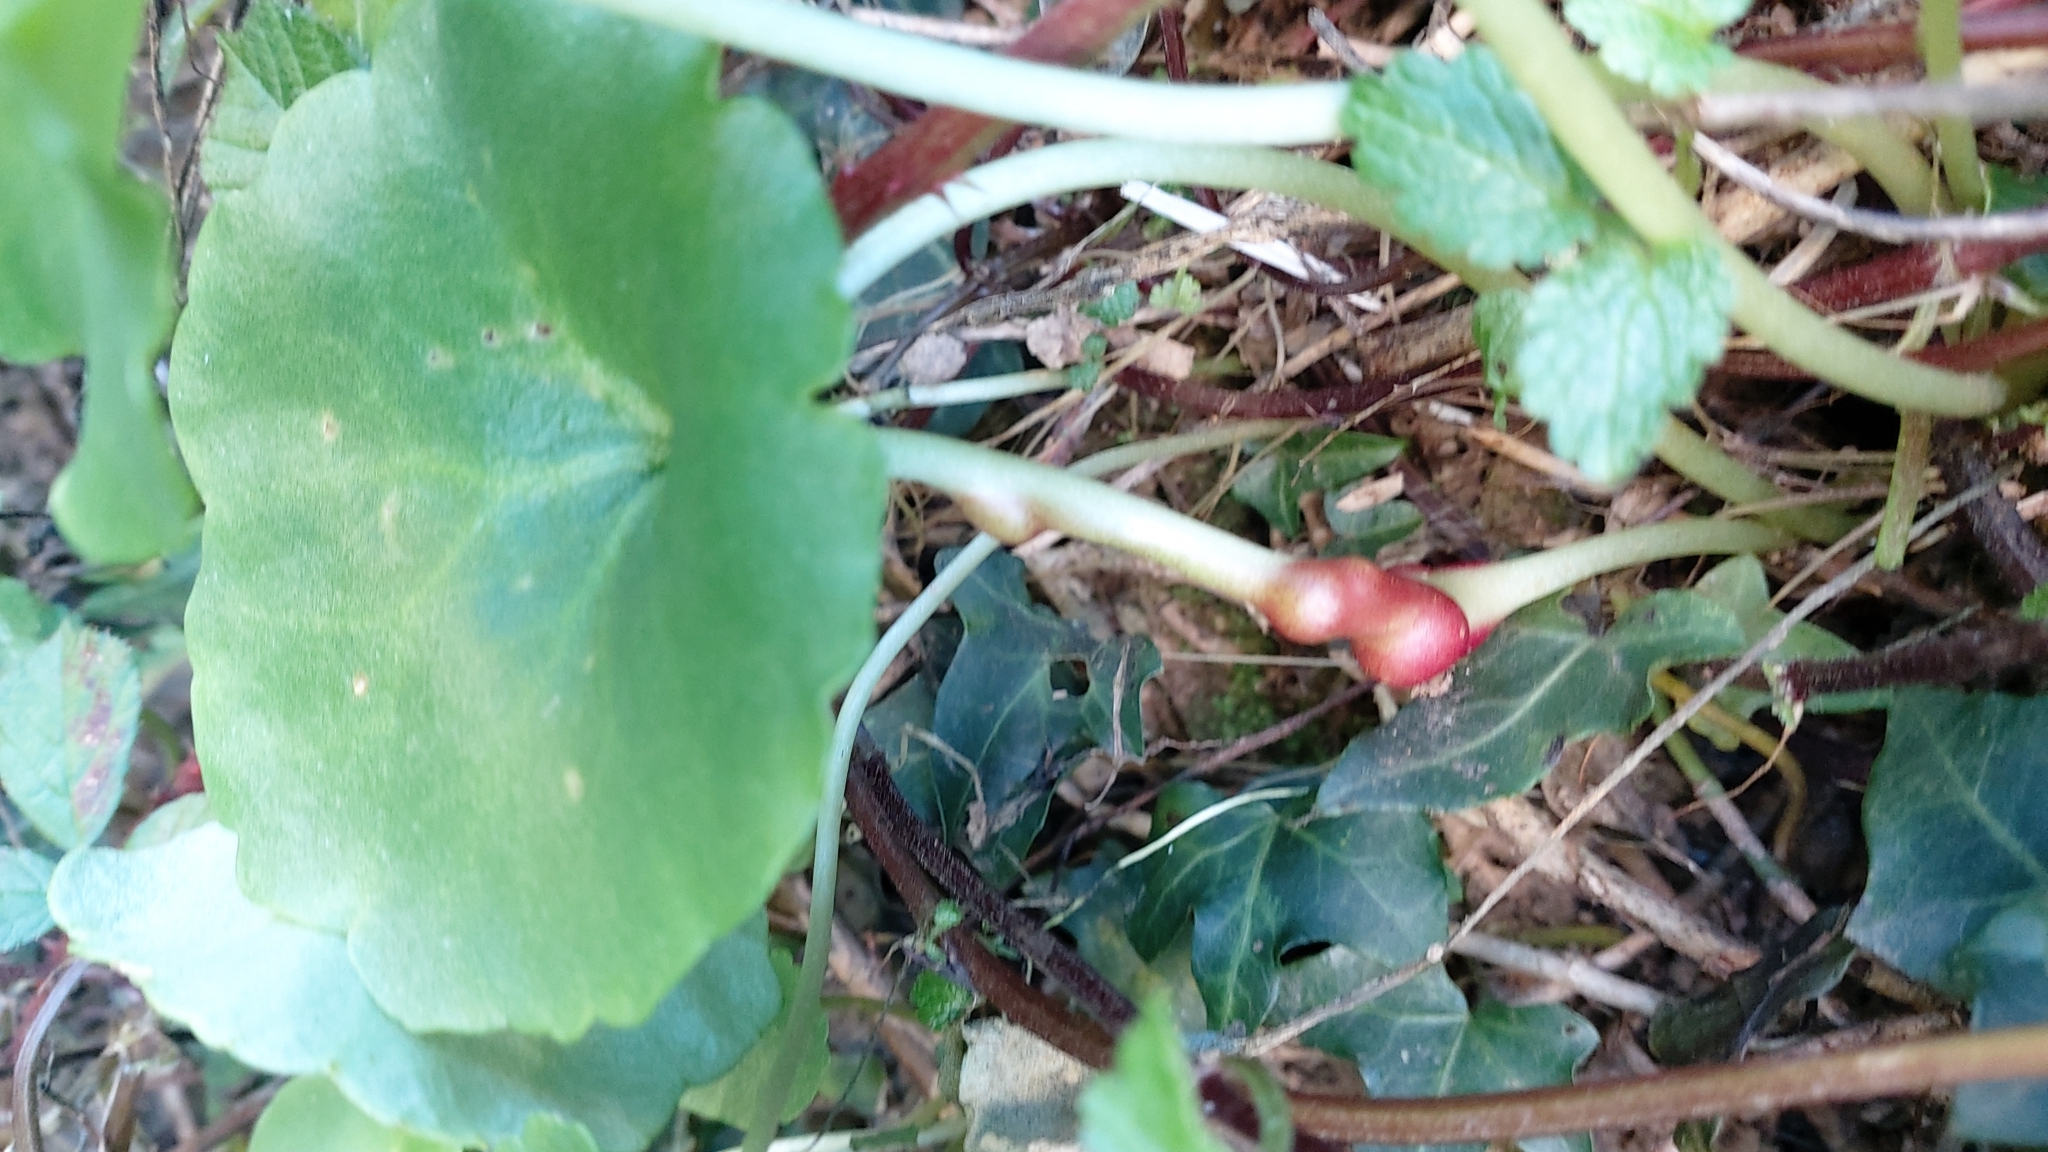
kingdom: Animalia
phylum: Arthropoda
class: Insecta
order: Coleoptera
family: Brentidae
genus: Pericartiellus
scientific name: Pericartiellus durieui
